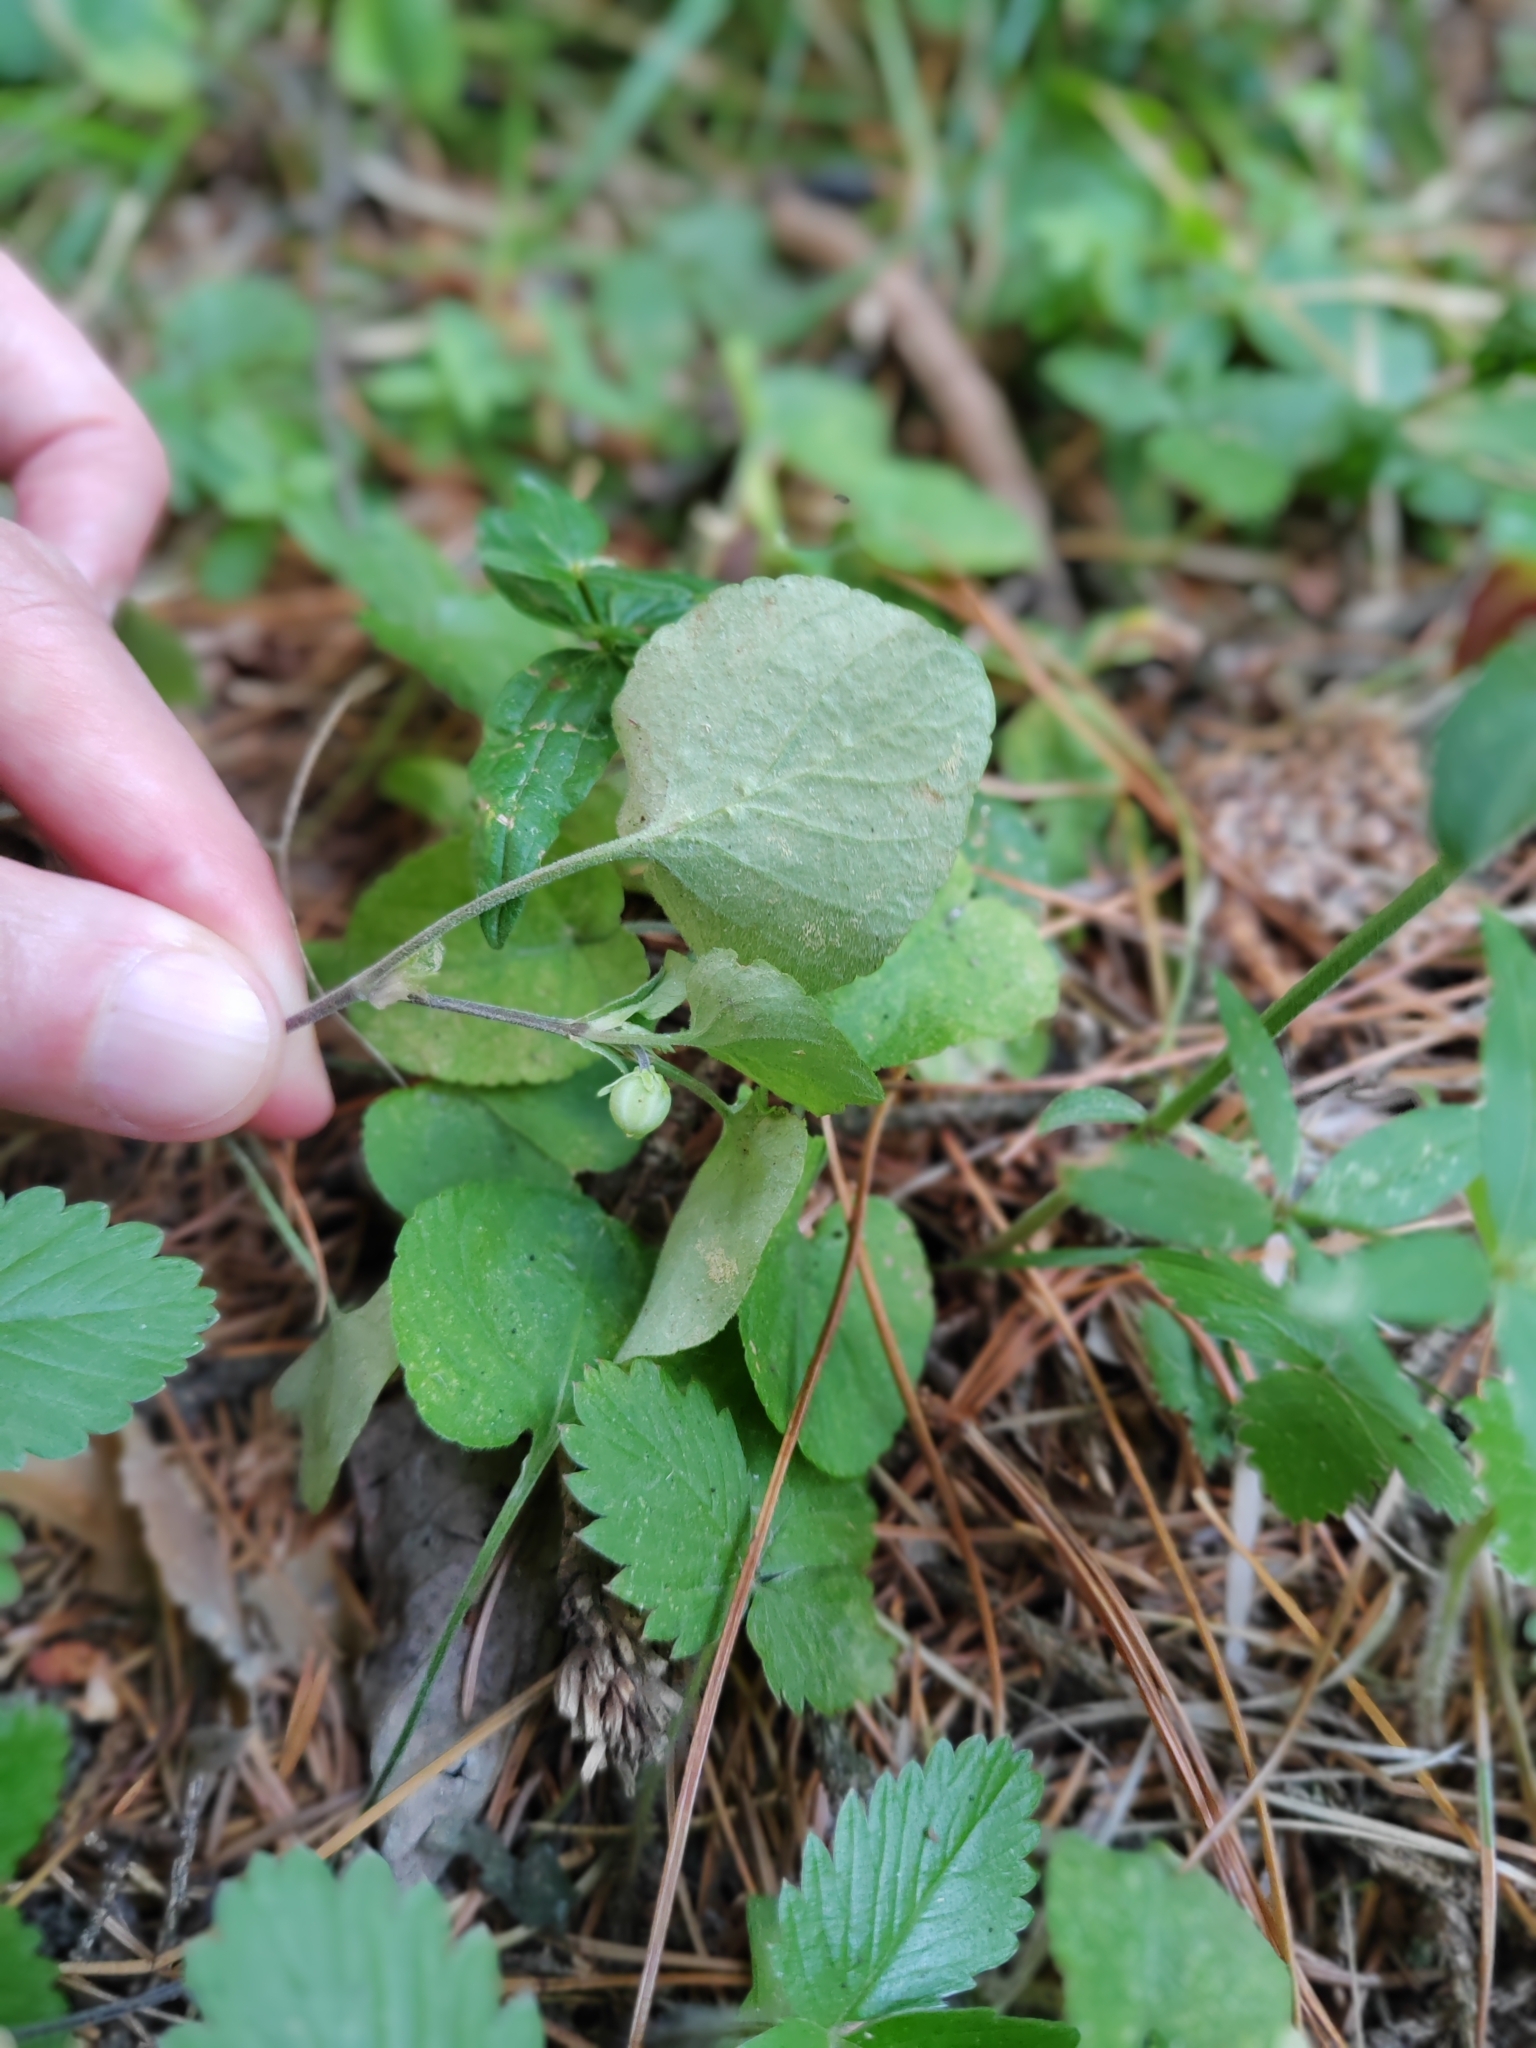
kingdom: Plantae
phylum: Tracheophyta
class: Magnoliopsida
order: Malpighiales
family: Violaceae
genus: Viola
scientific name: Viola rupestris
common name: Teesdale violet
